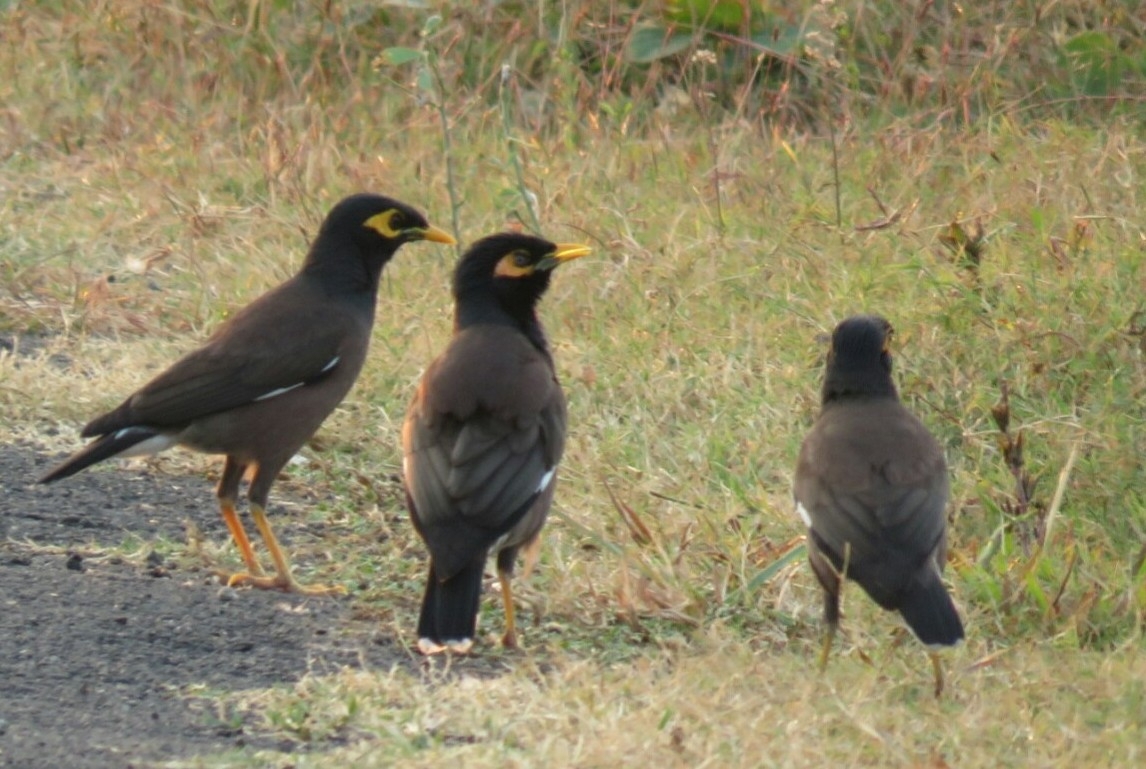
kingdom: Animalia
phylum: Chordata
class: Aves
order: Passeriformes
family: Sturnidae
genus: Acridotheres
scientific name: Acridotheres tristis
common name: Common myna
